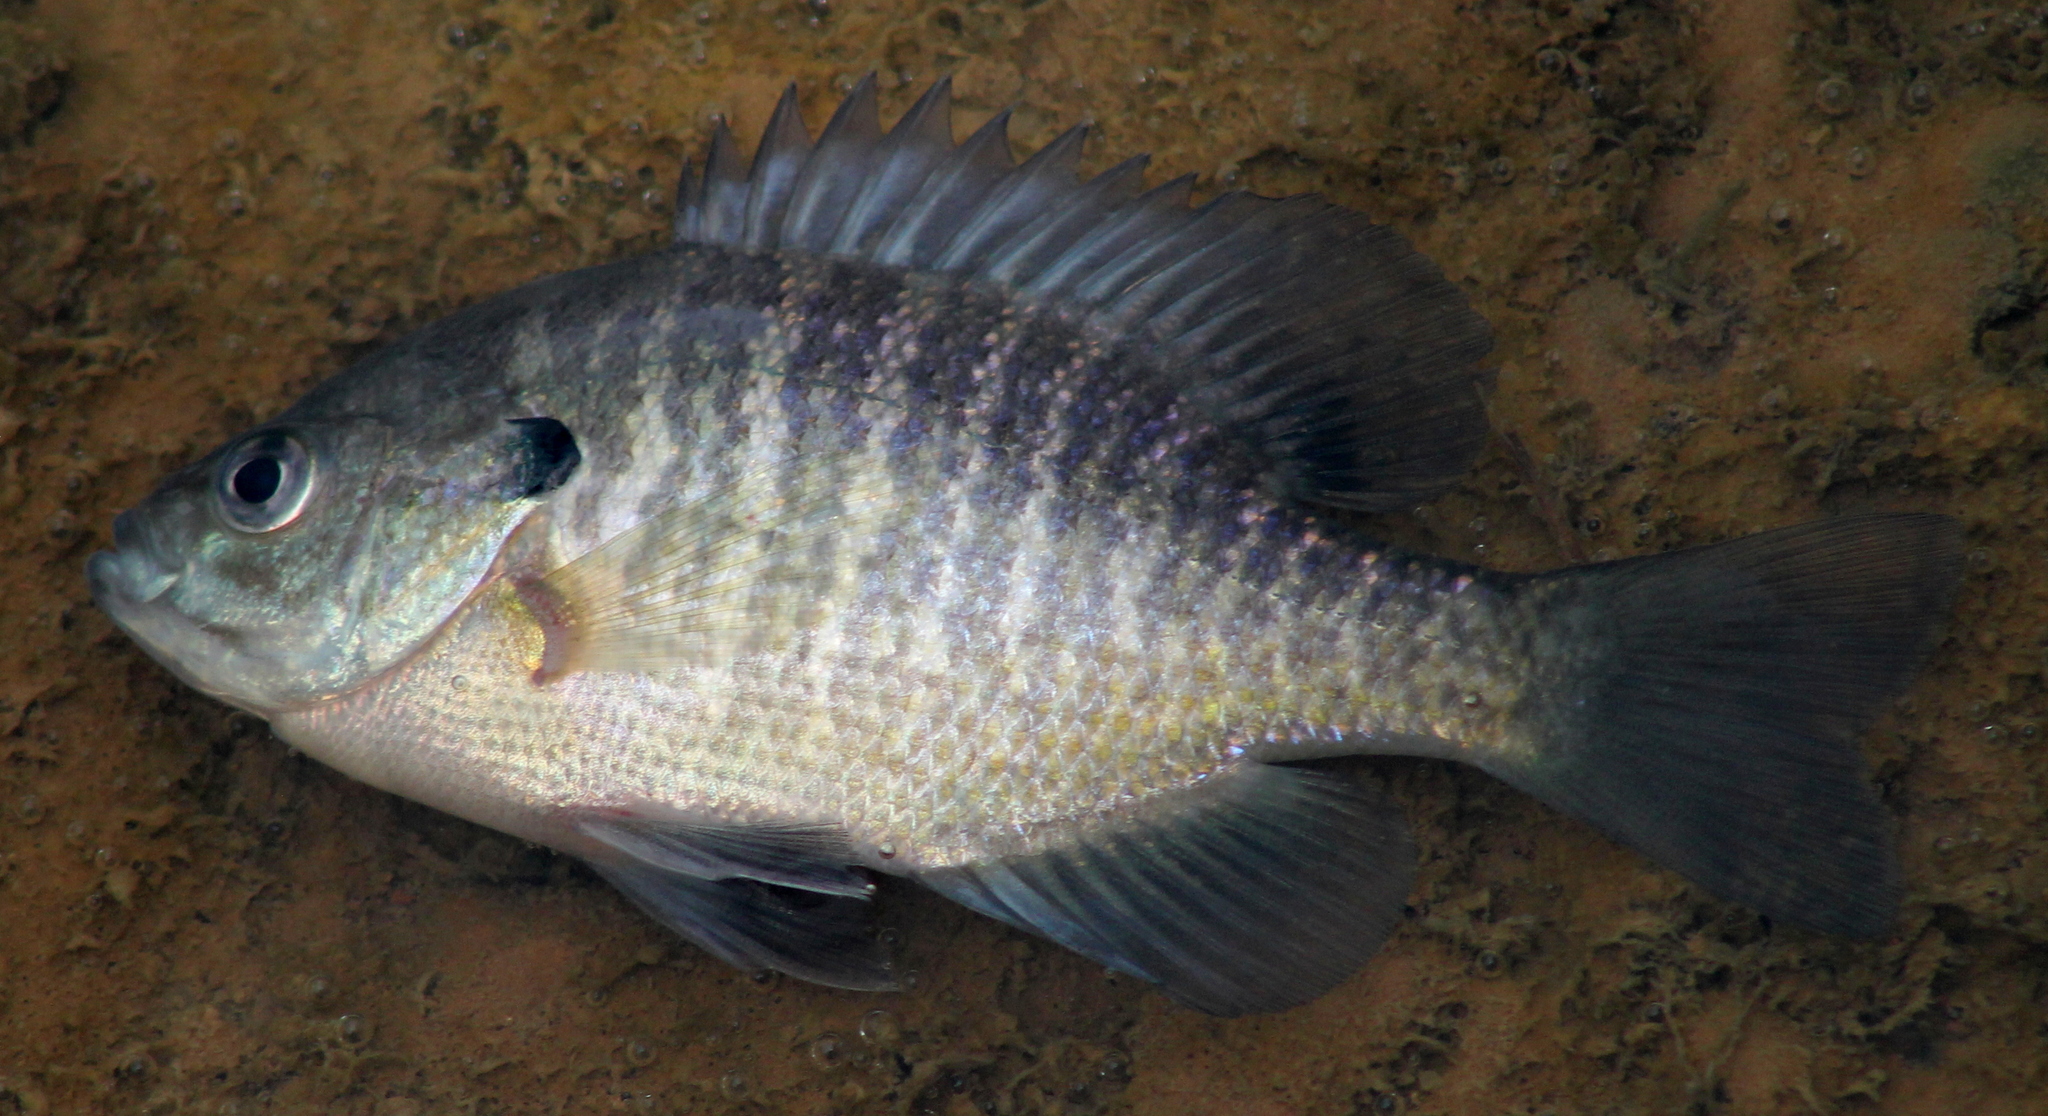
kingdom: Animalia
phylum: Chordata
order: Perciformes
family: Centrarchidae
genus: Lepomis
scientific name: Lepomis macrochirus
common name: Bluegill
